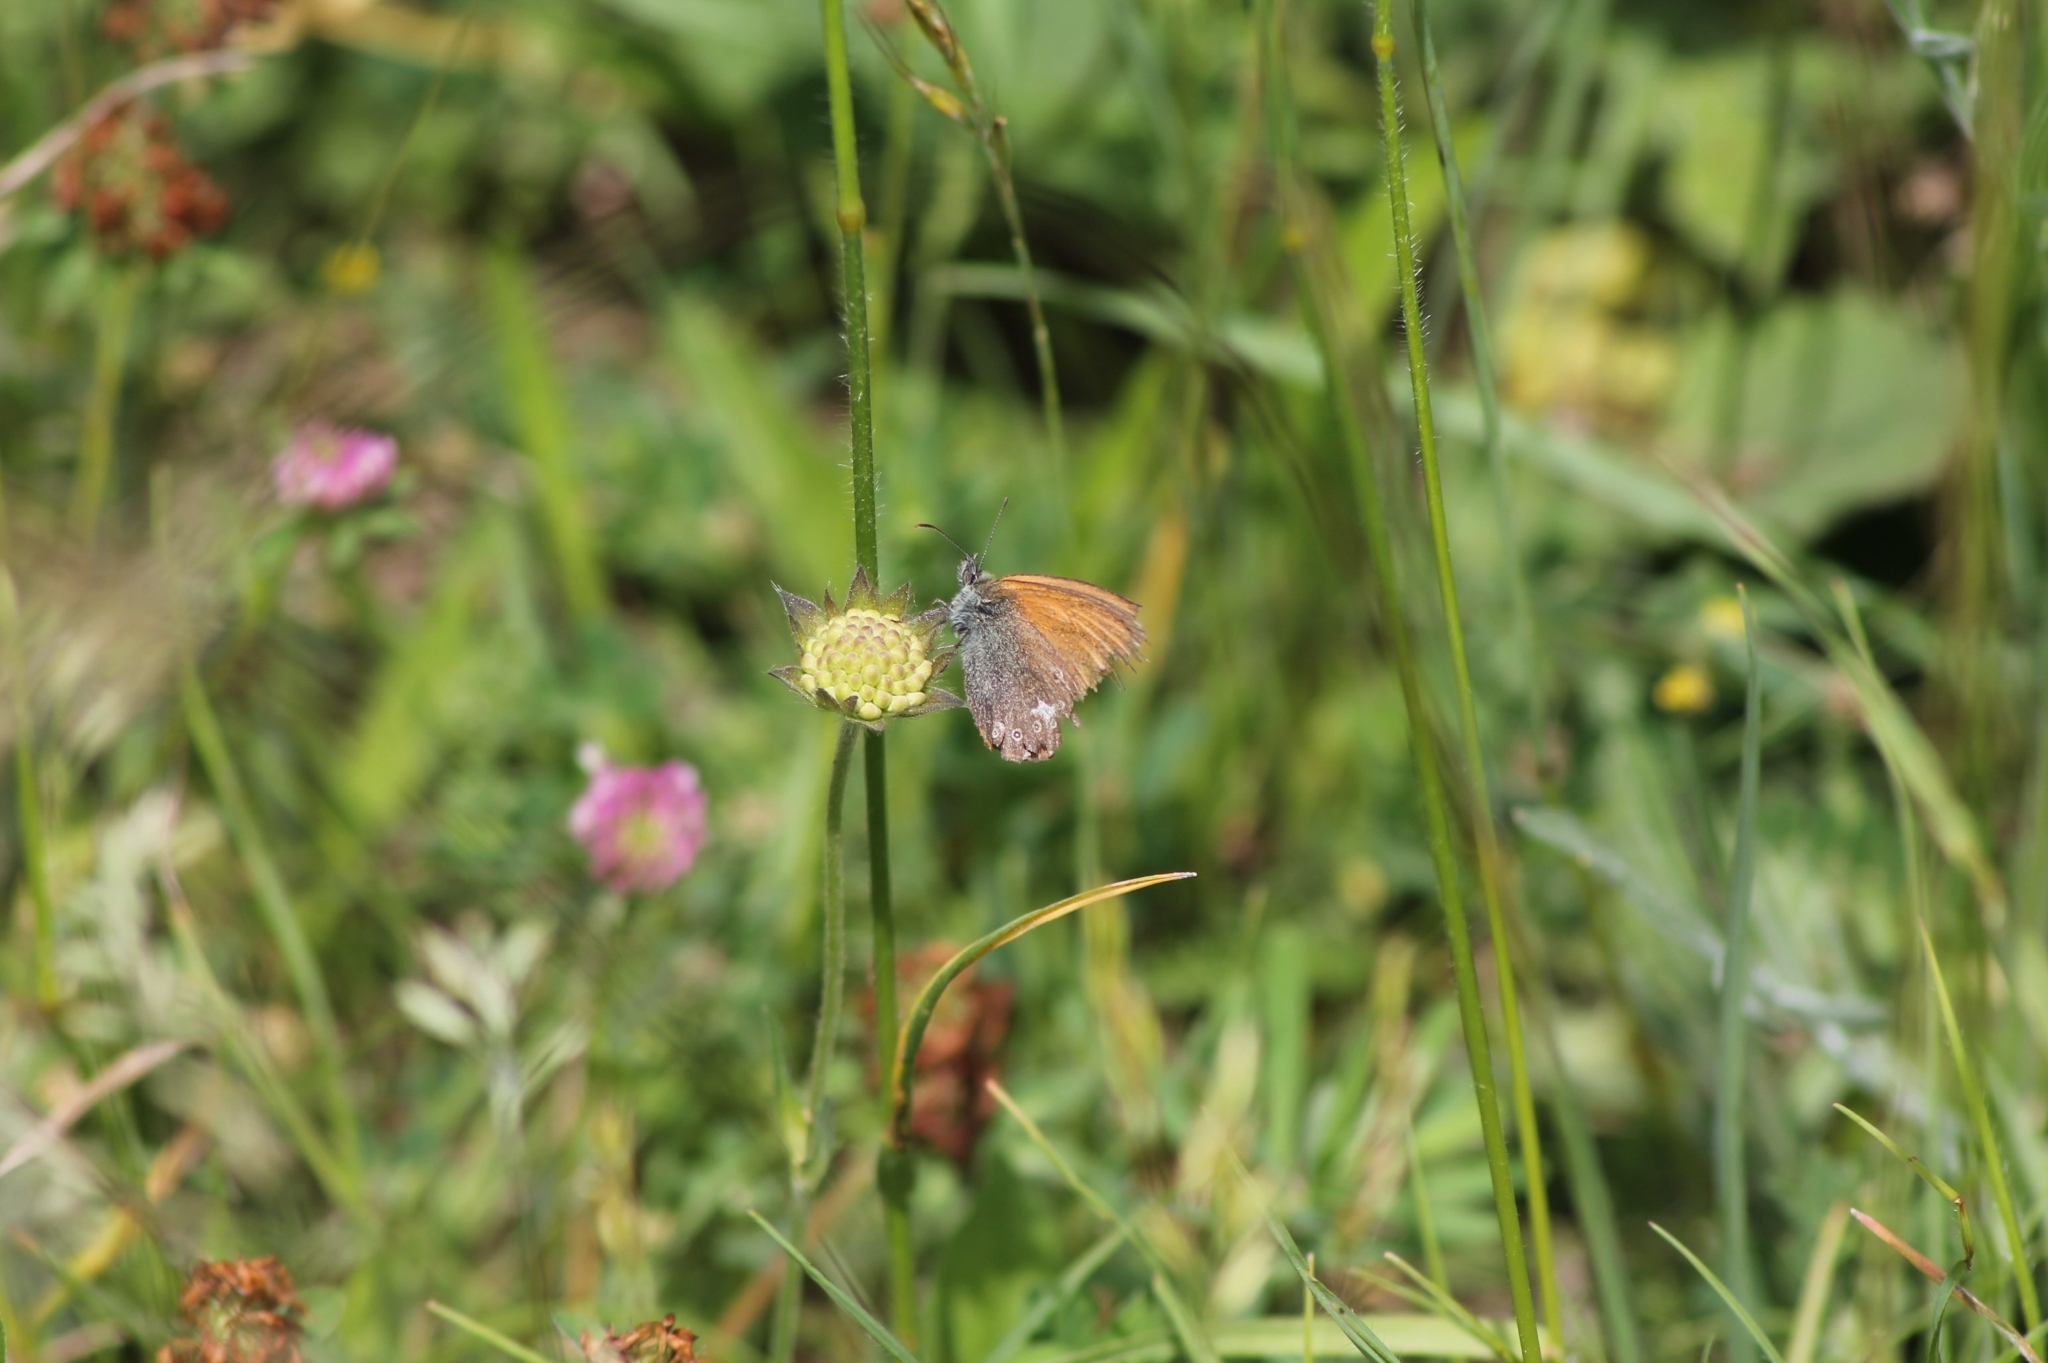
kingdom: Animalia
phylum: Arthropoda
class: Insecta
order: Lepidoptera
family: Nymphalidae
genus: Coenonympha
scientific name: Coenonympha iphis
